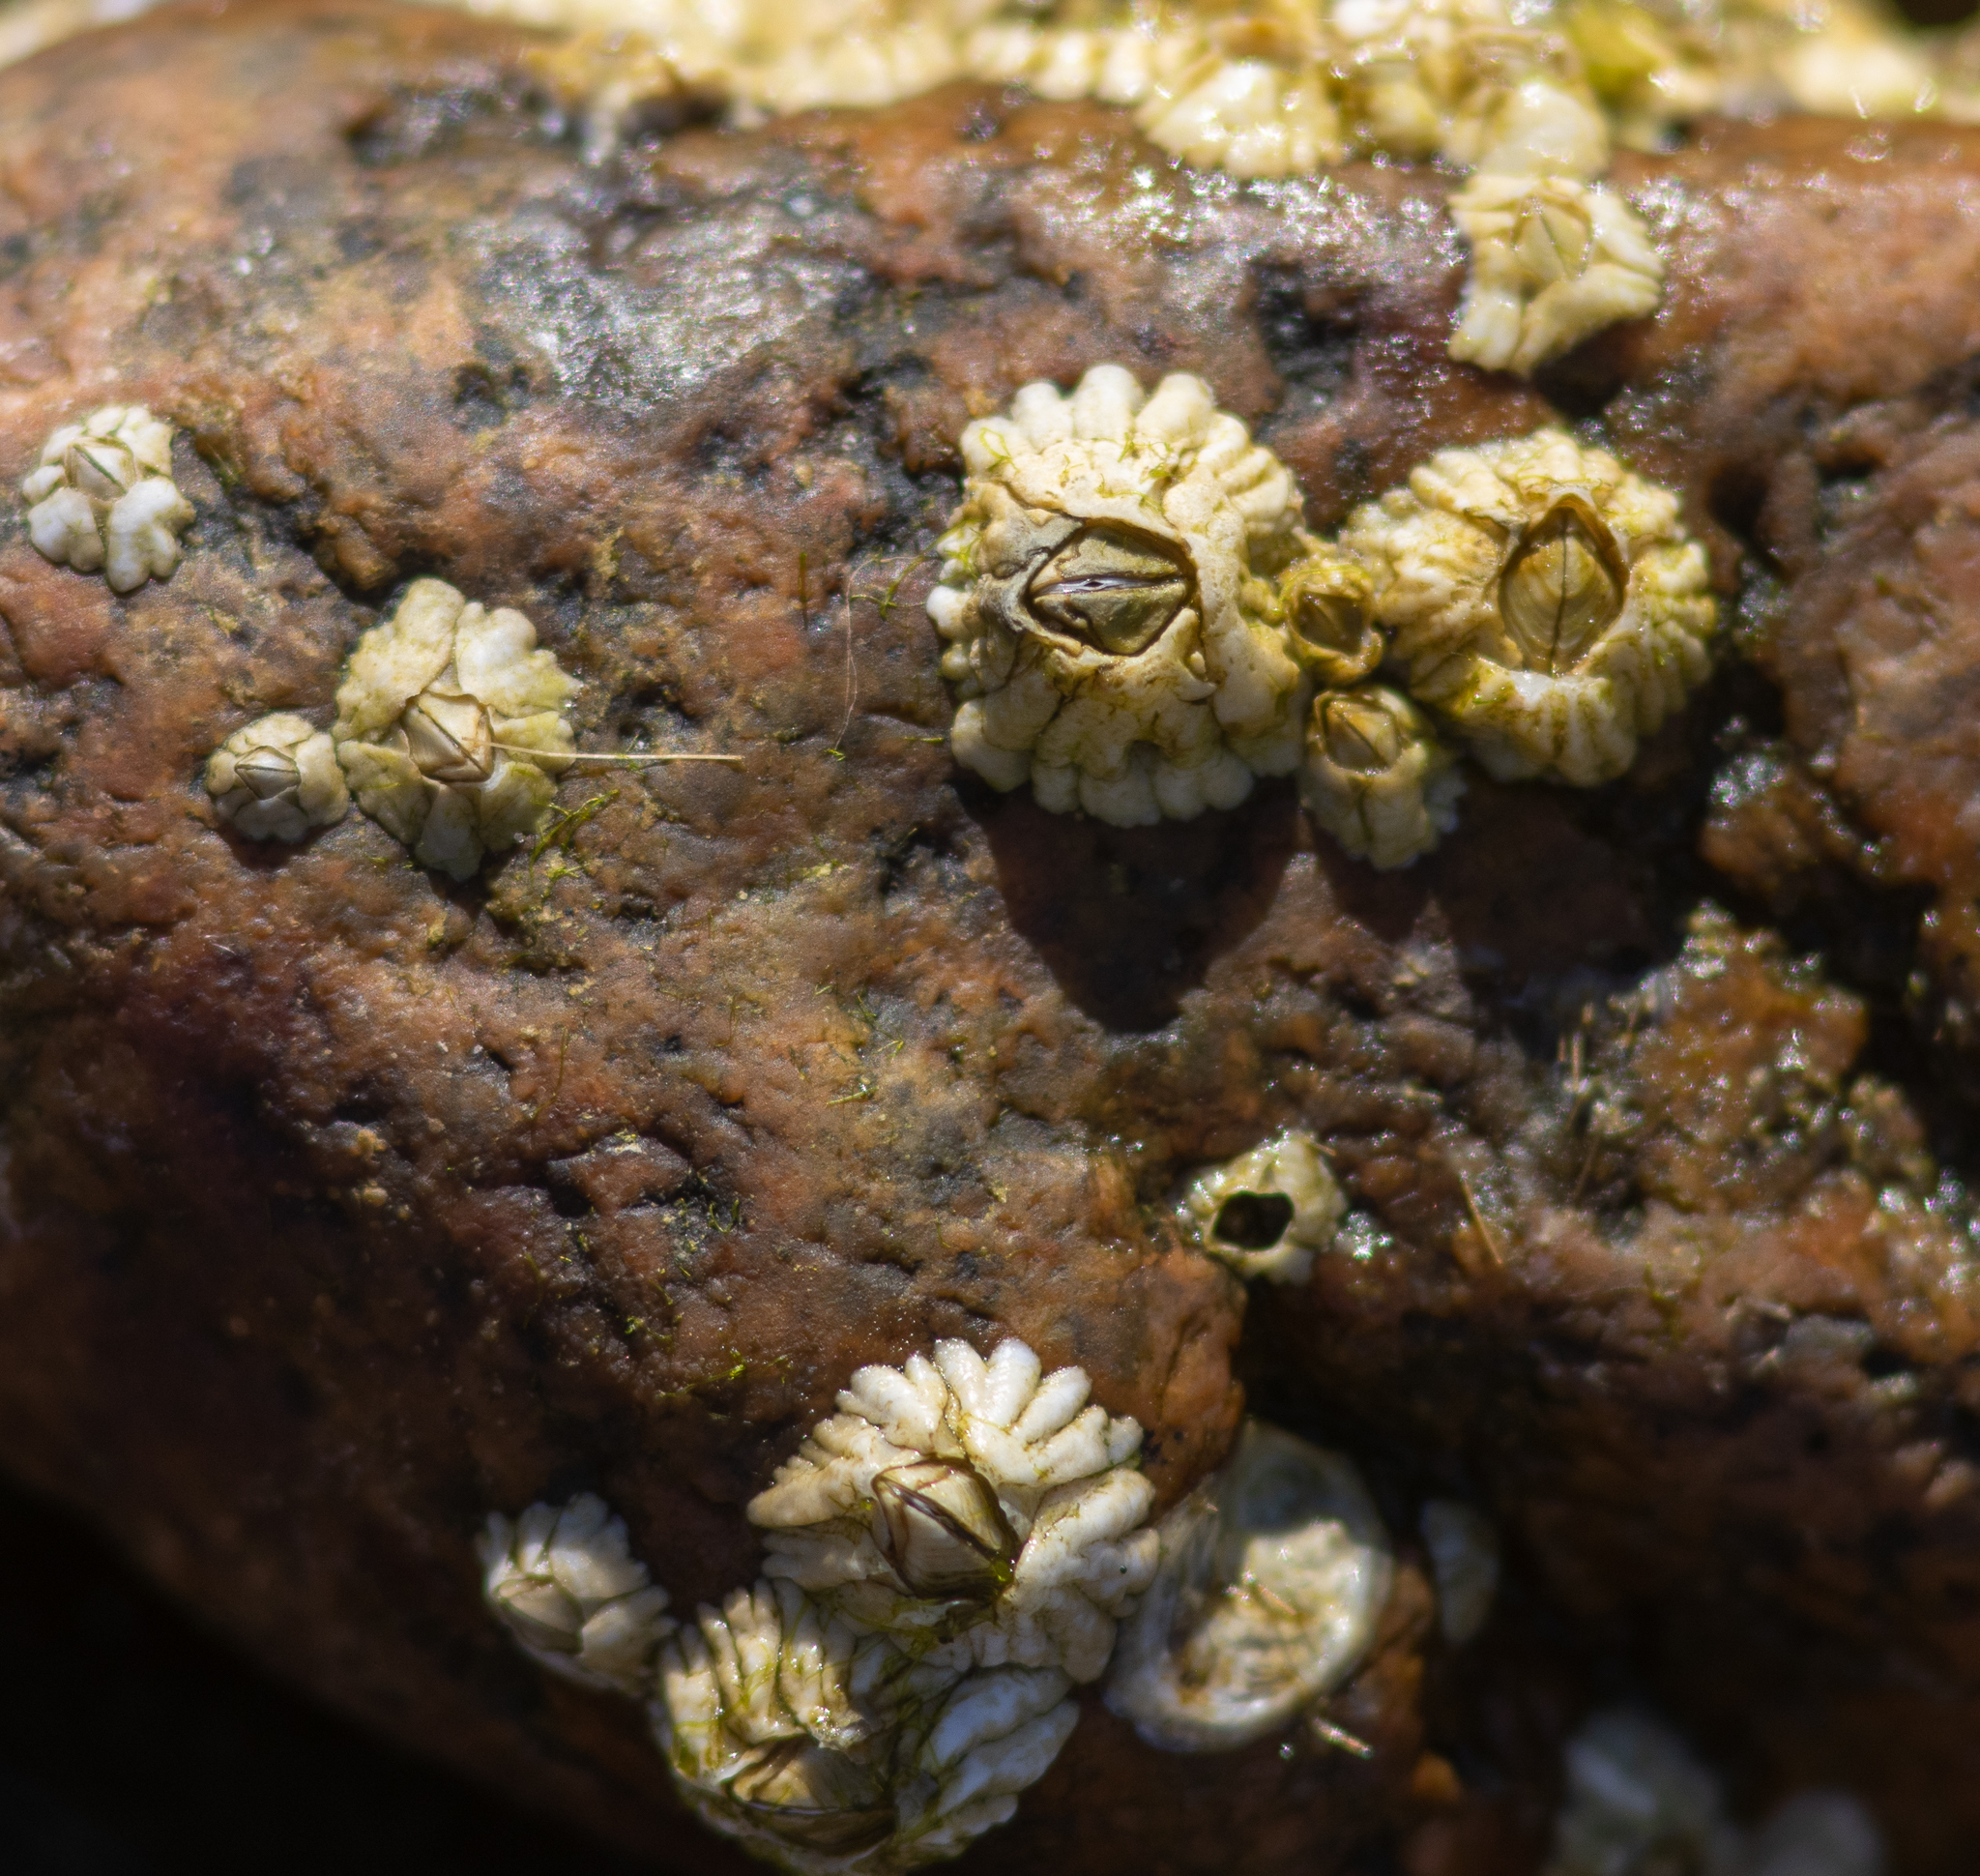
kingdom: Animalia
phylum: Arthropoda
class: Maxillopoda
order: Sessilia
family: Archaeobalanidae
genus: Semibalanus
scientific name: Semibalanus balanoides
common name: Acorn barnacle
